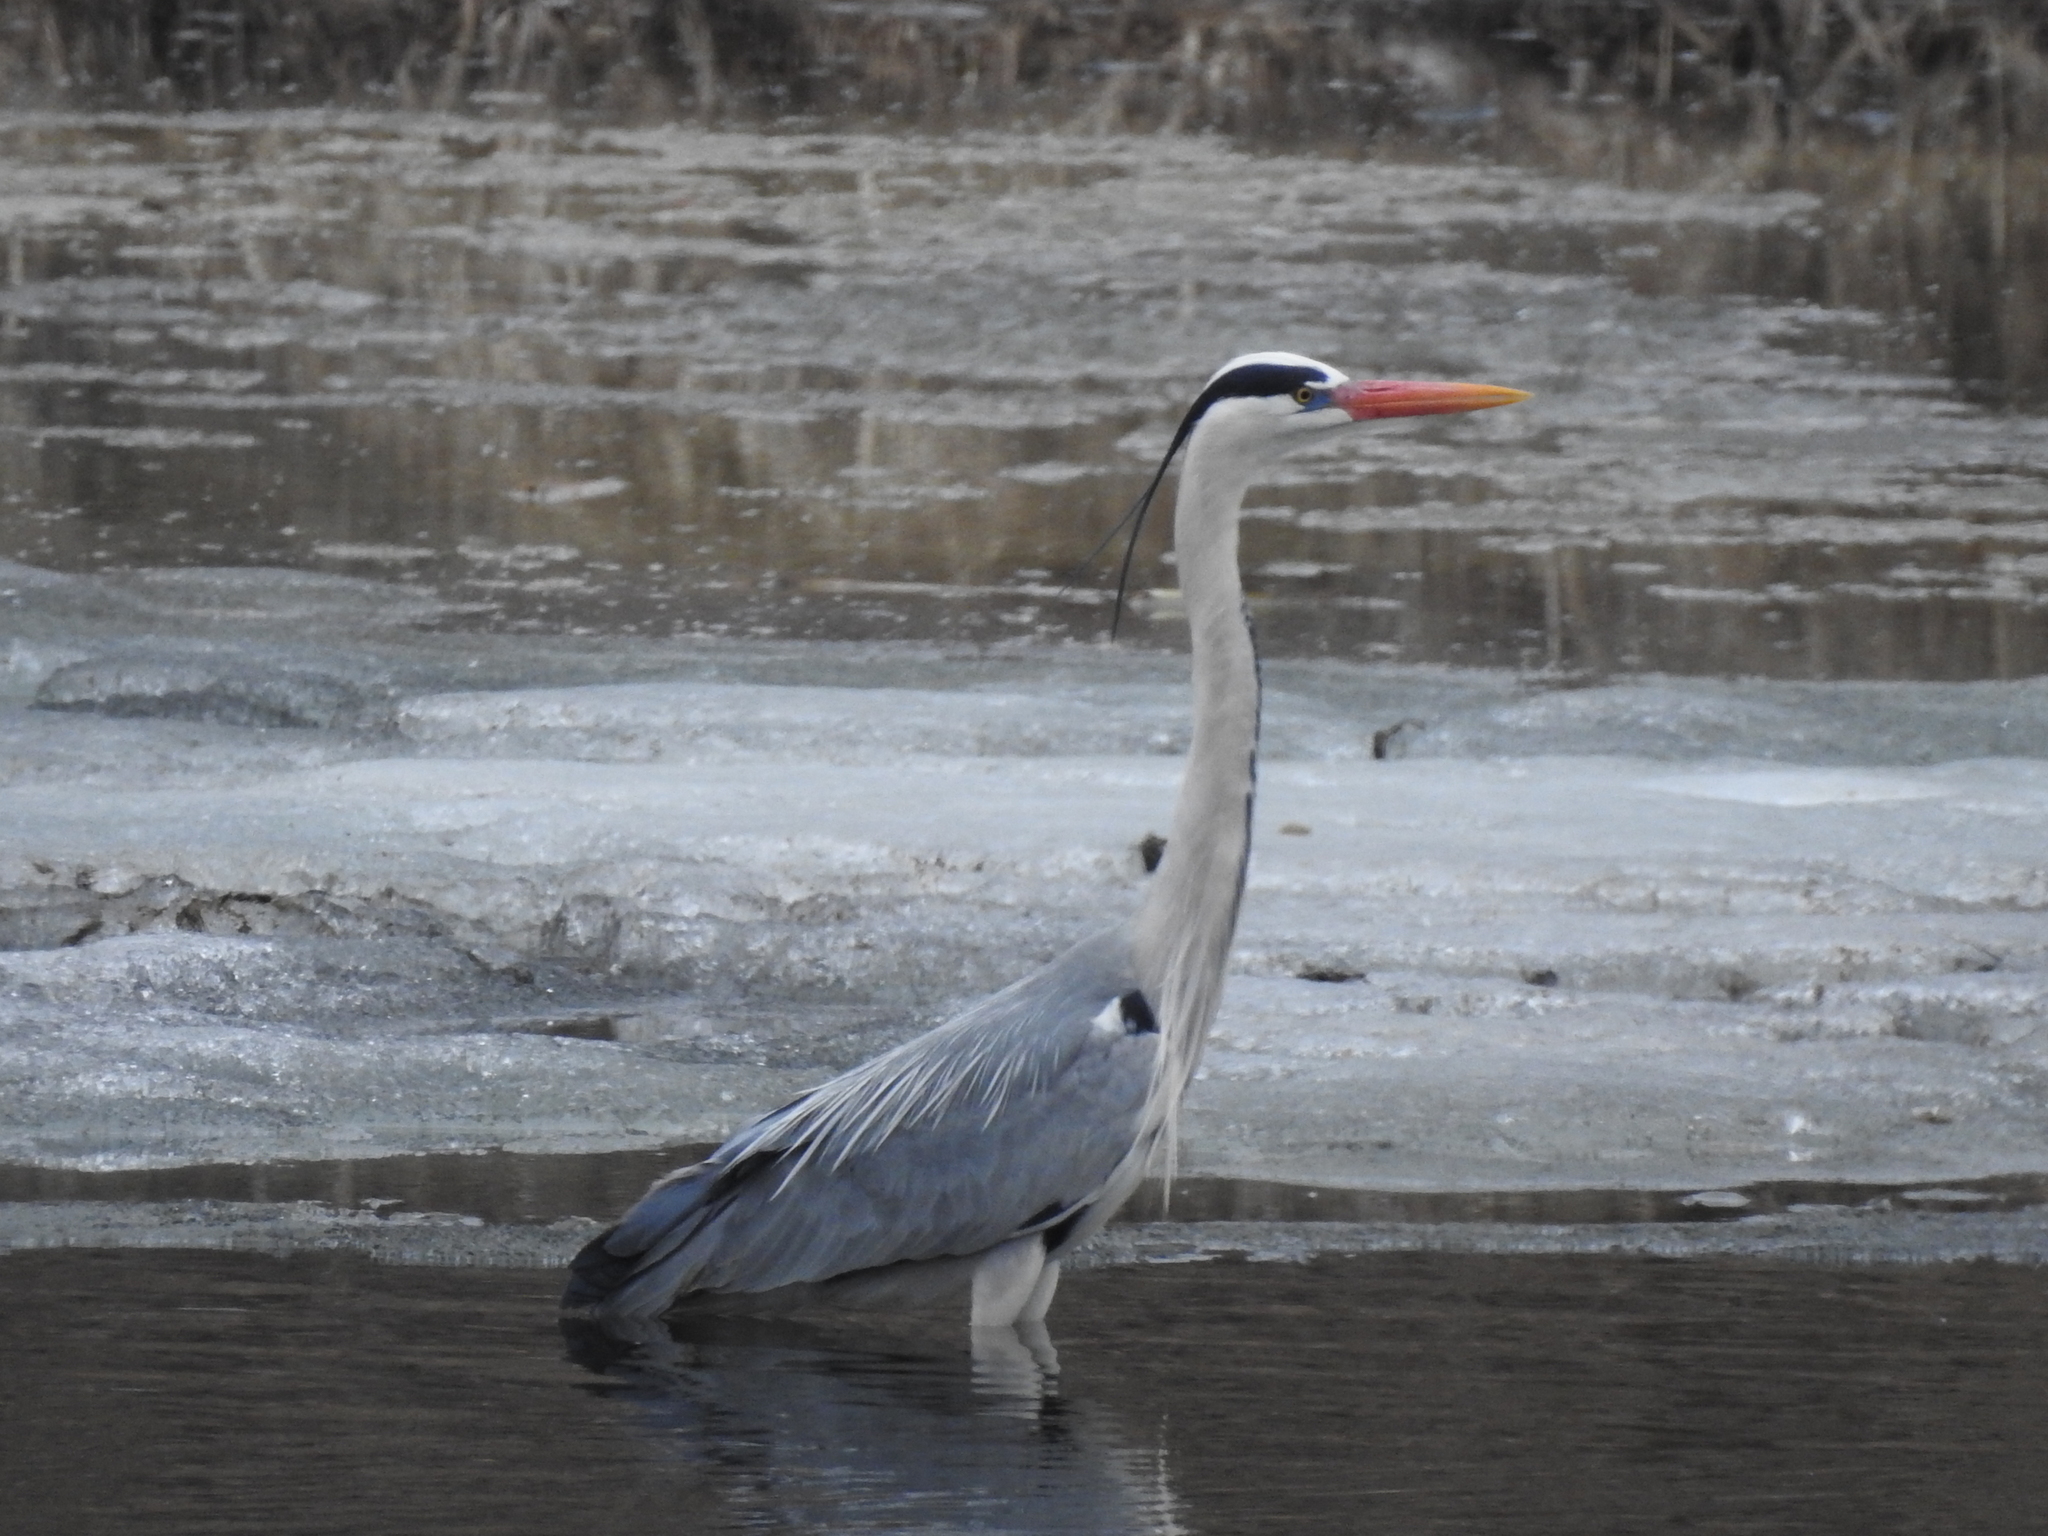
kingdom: Animalia
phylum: Chordata
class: Aves
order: Pelecaniformes
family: Ardeidae
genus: Ardea
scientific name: Ardea cinerea
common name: Grey heron
